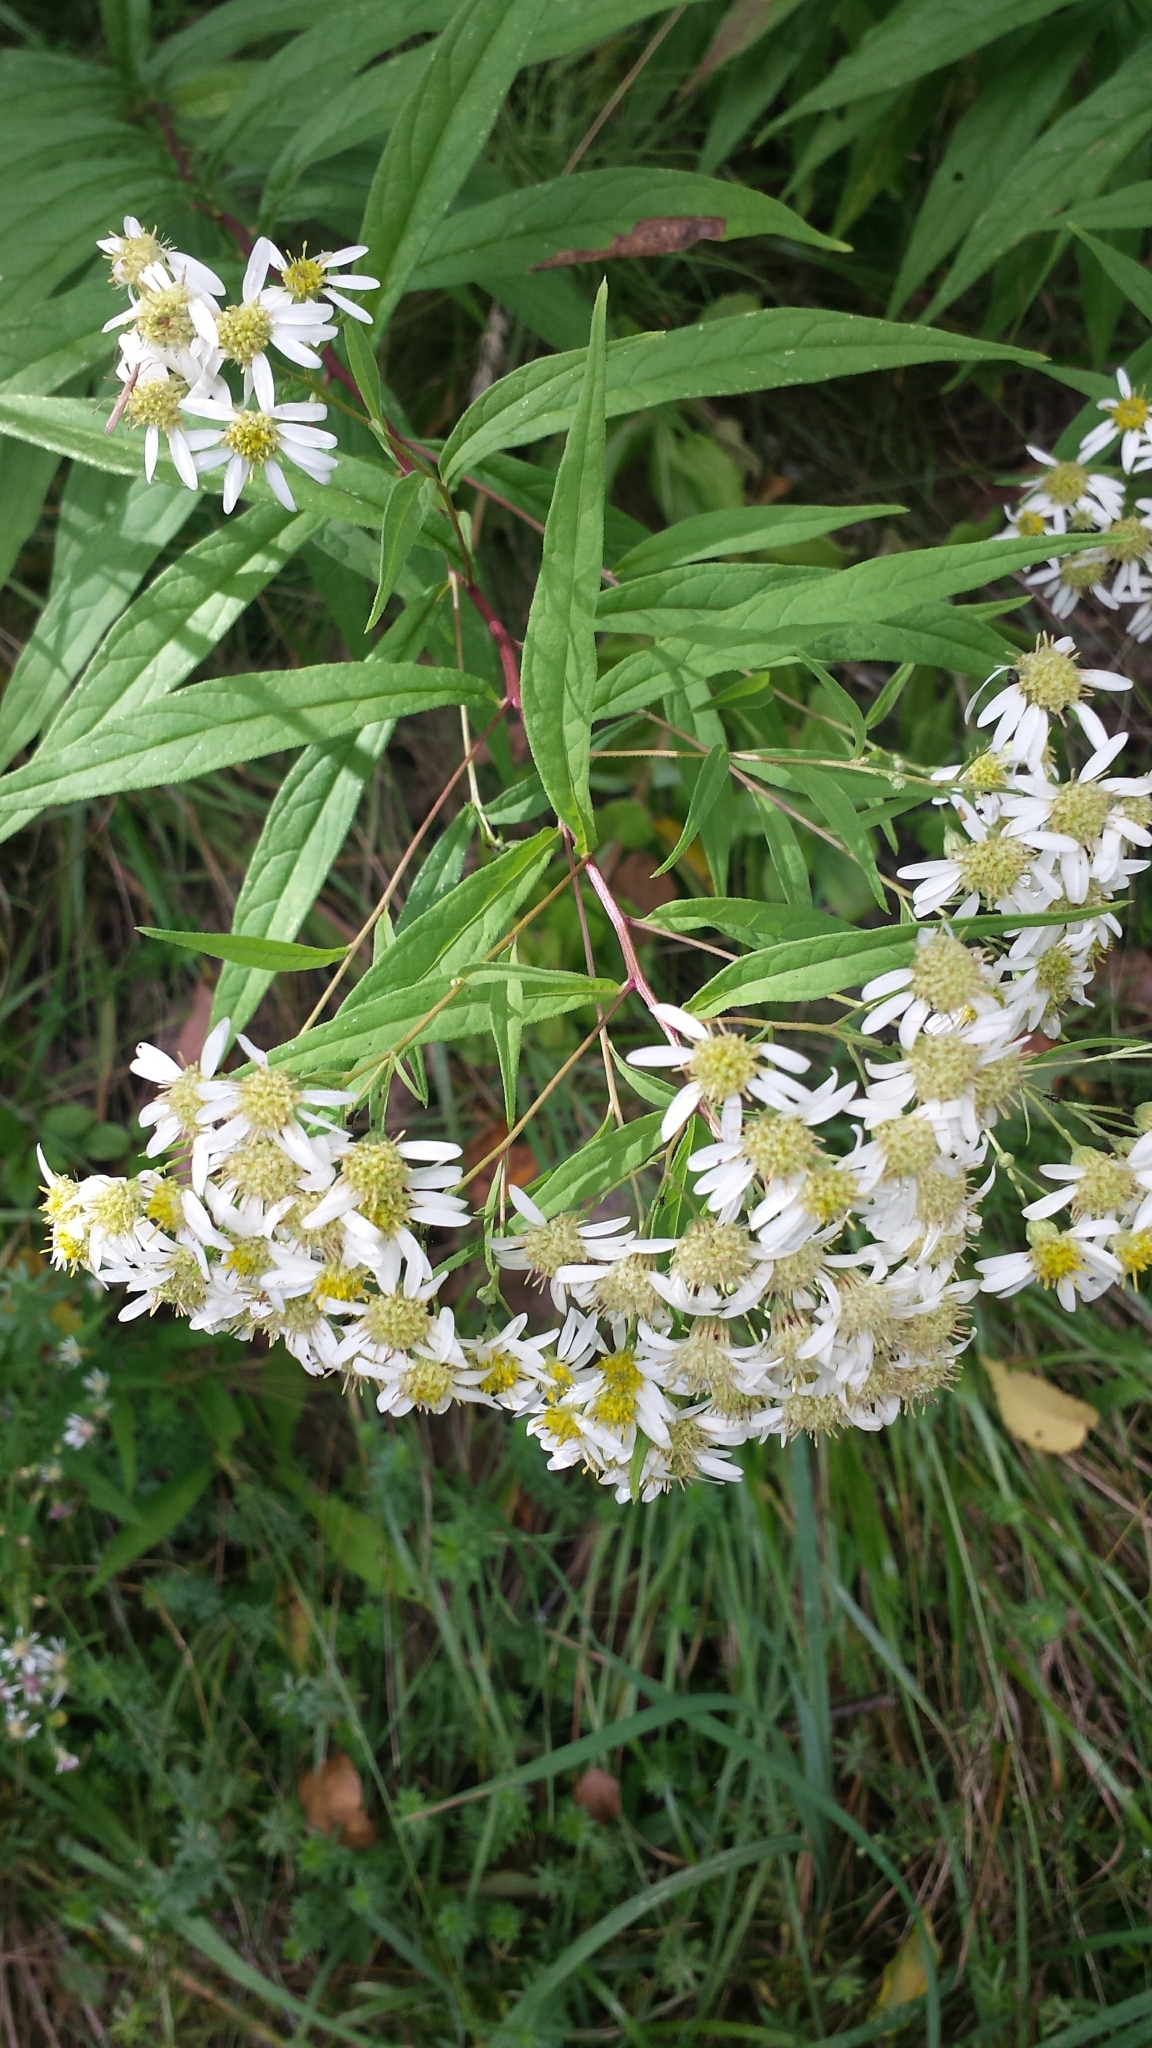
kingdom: Plantae
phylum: Tracheophyta
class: Magnoliopsida
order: Asterales
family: Asteraceae
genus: Doellingeria
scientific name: Doellingeria umbellata
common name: Flat-top white aster
